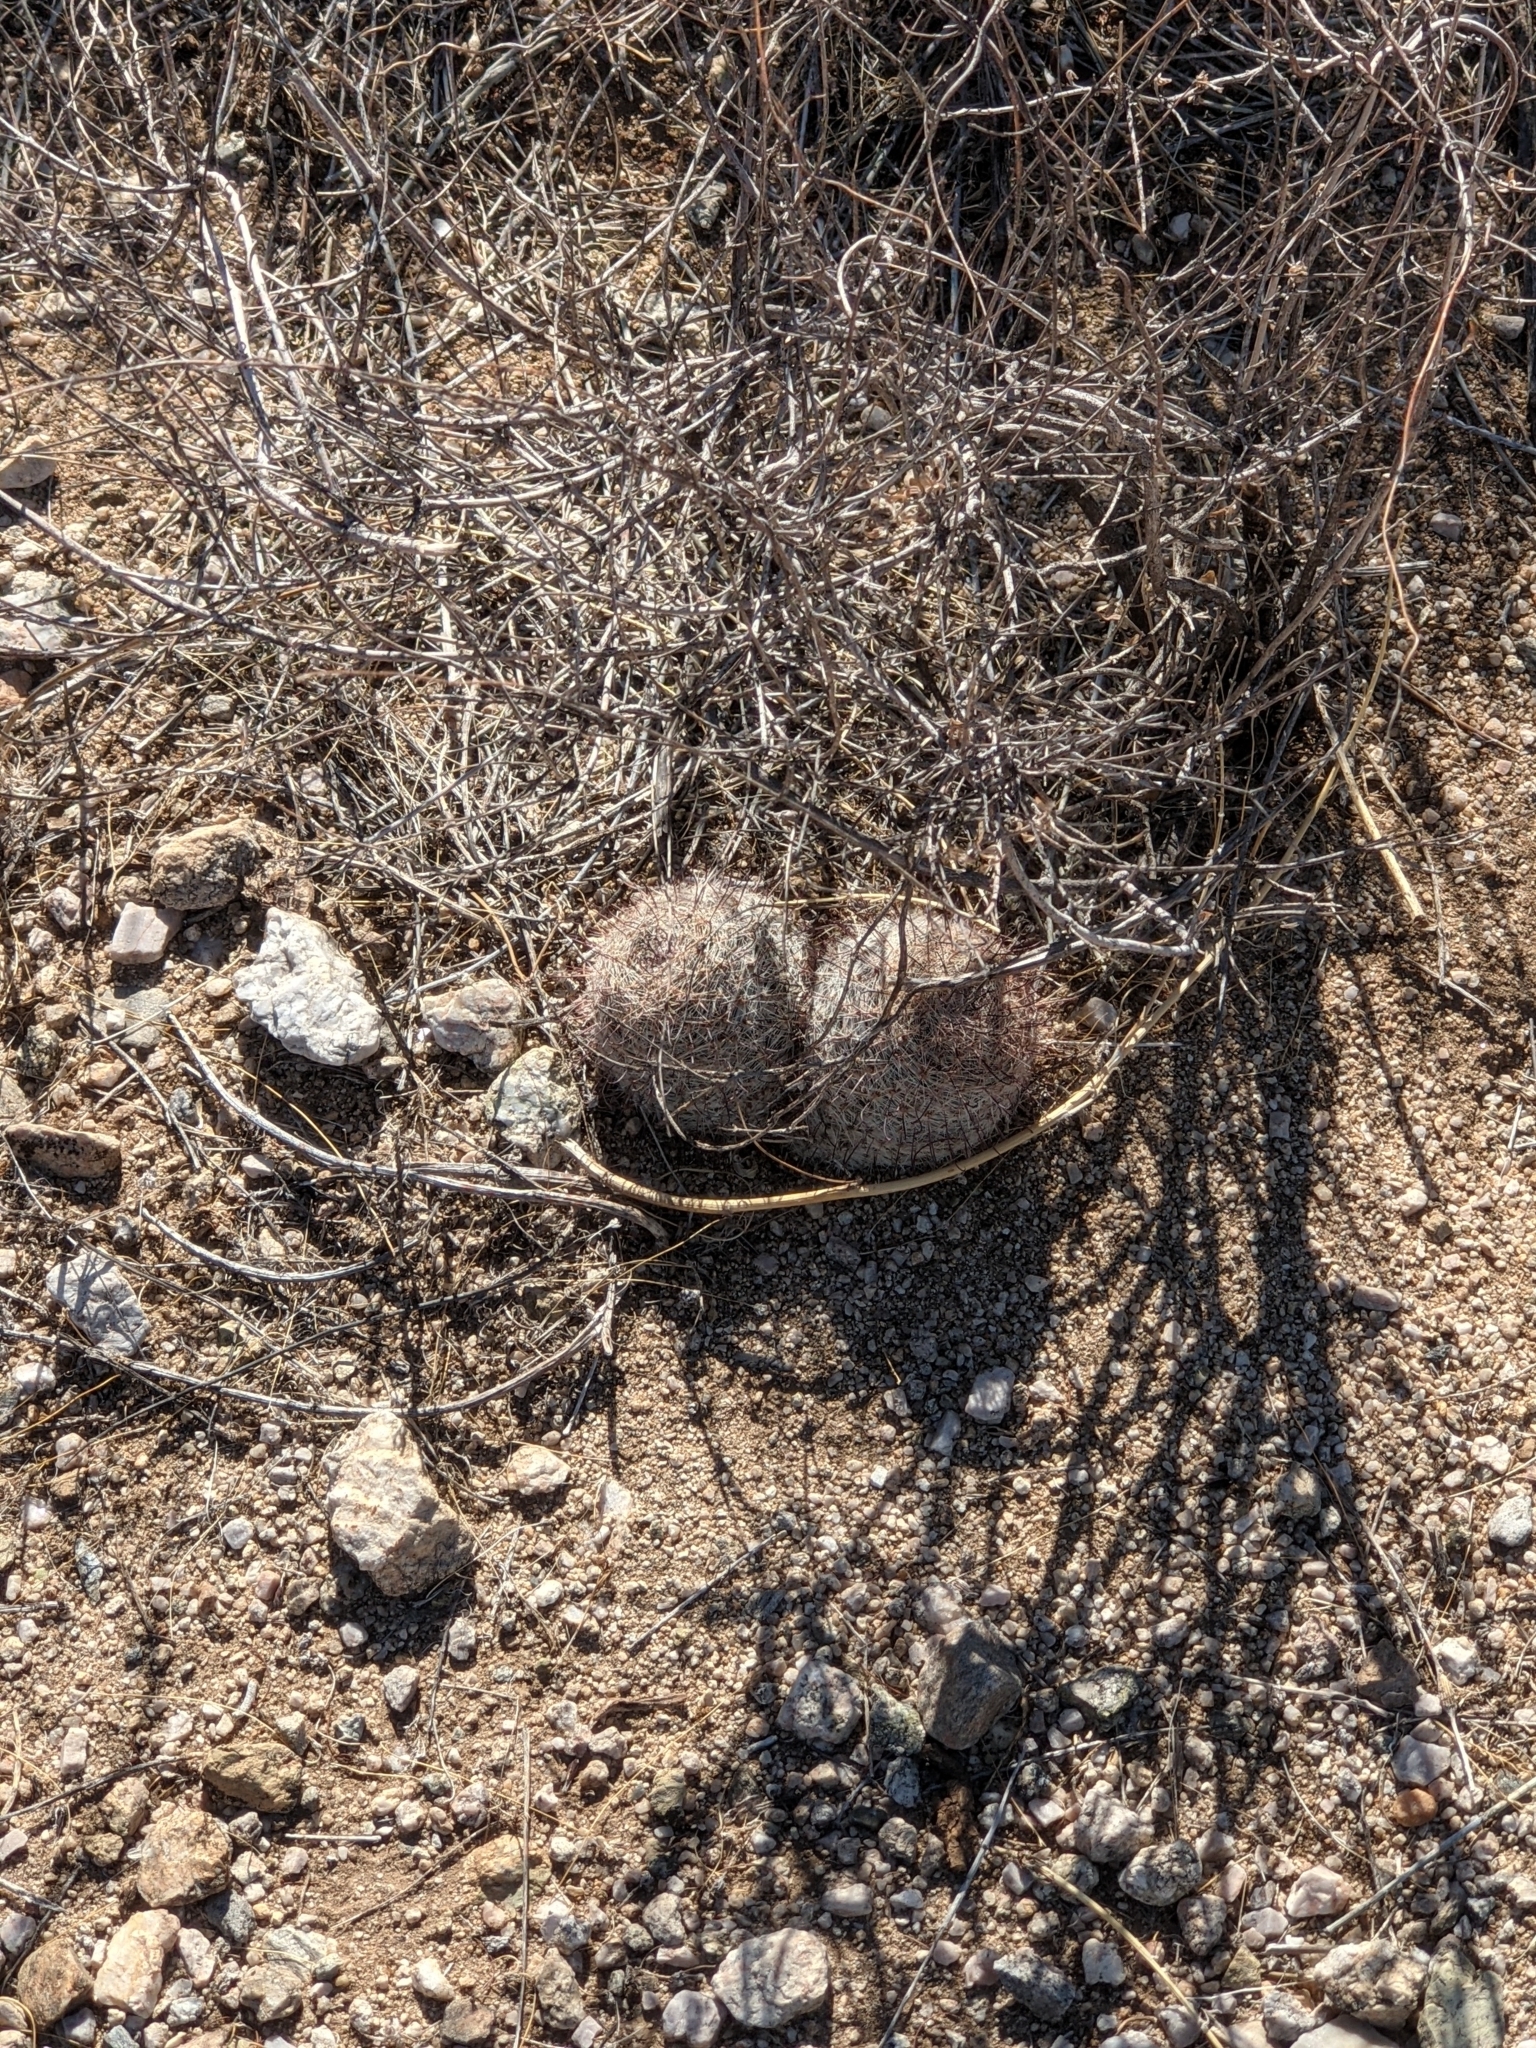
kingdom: Plantae
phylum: Tracheophyta
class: Magnoliopsida
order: Caryophyllales
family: Cactaceae
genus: Cochemiea
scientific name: Cochemiea grahamii
